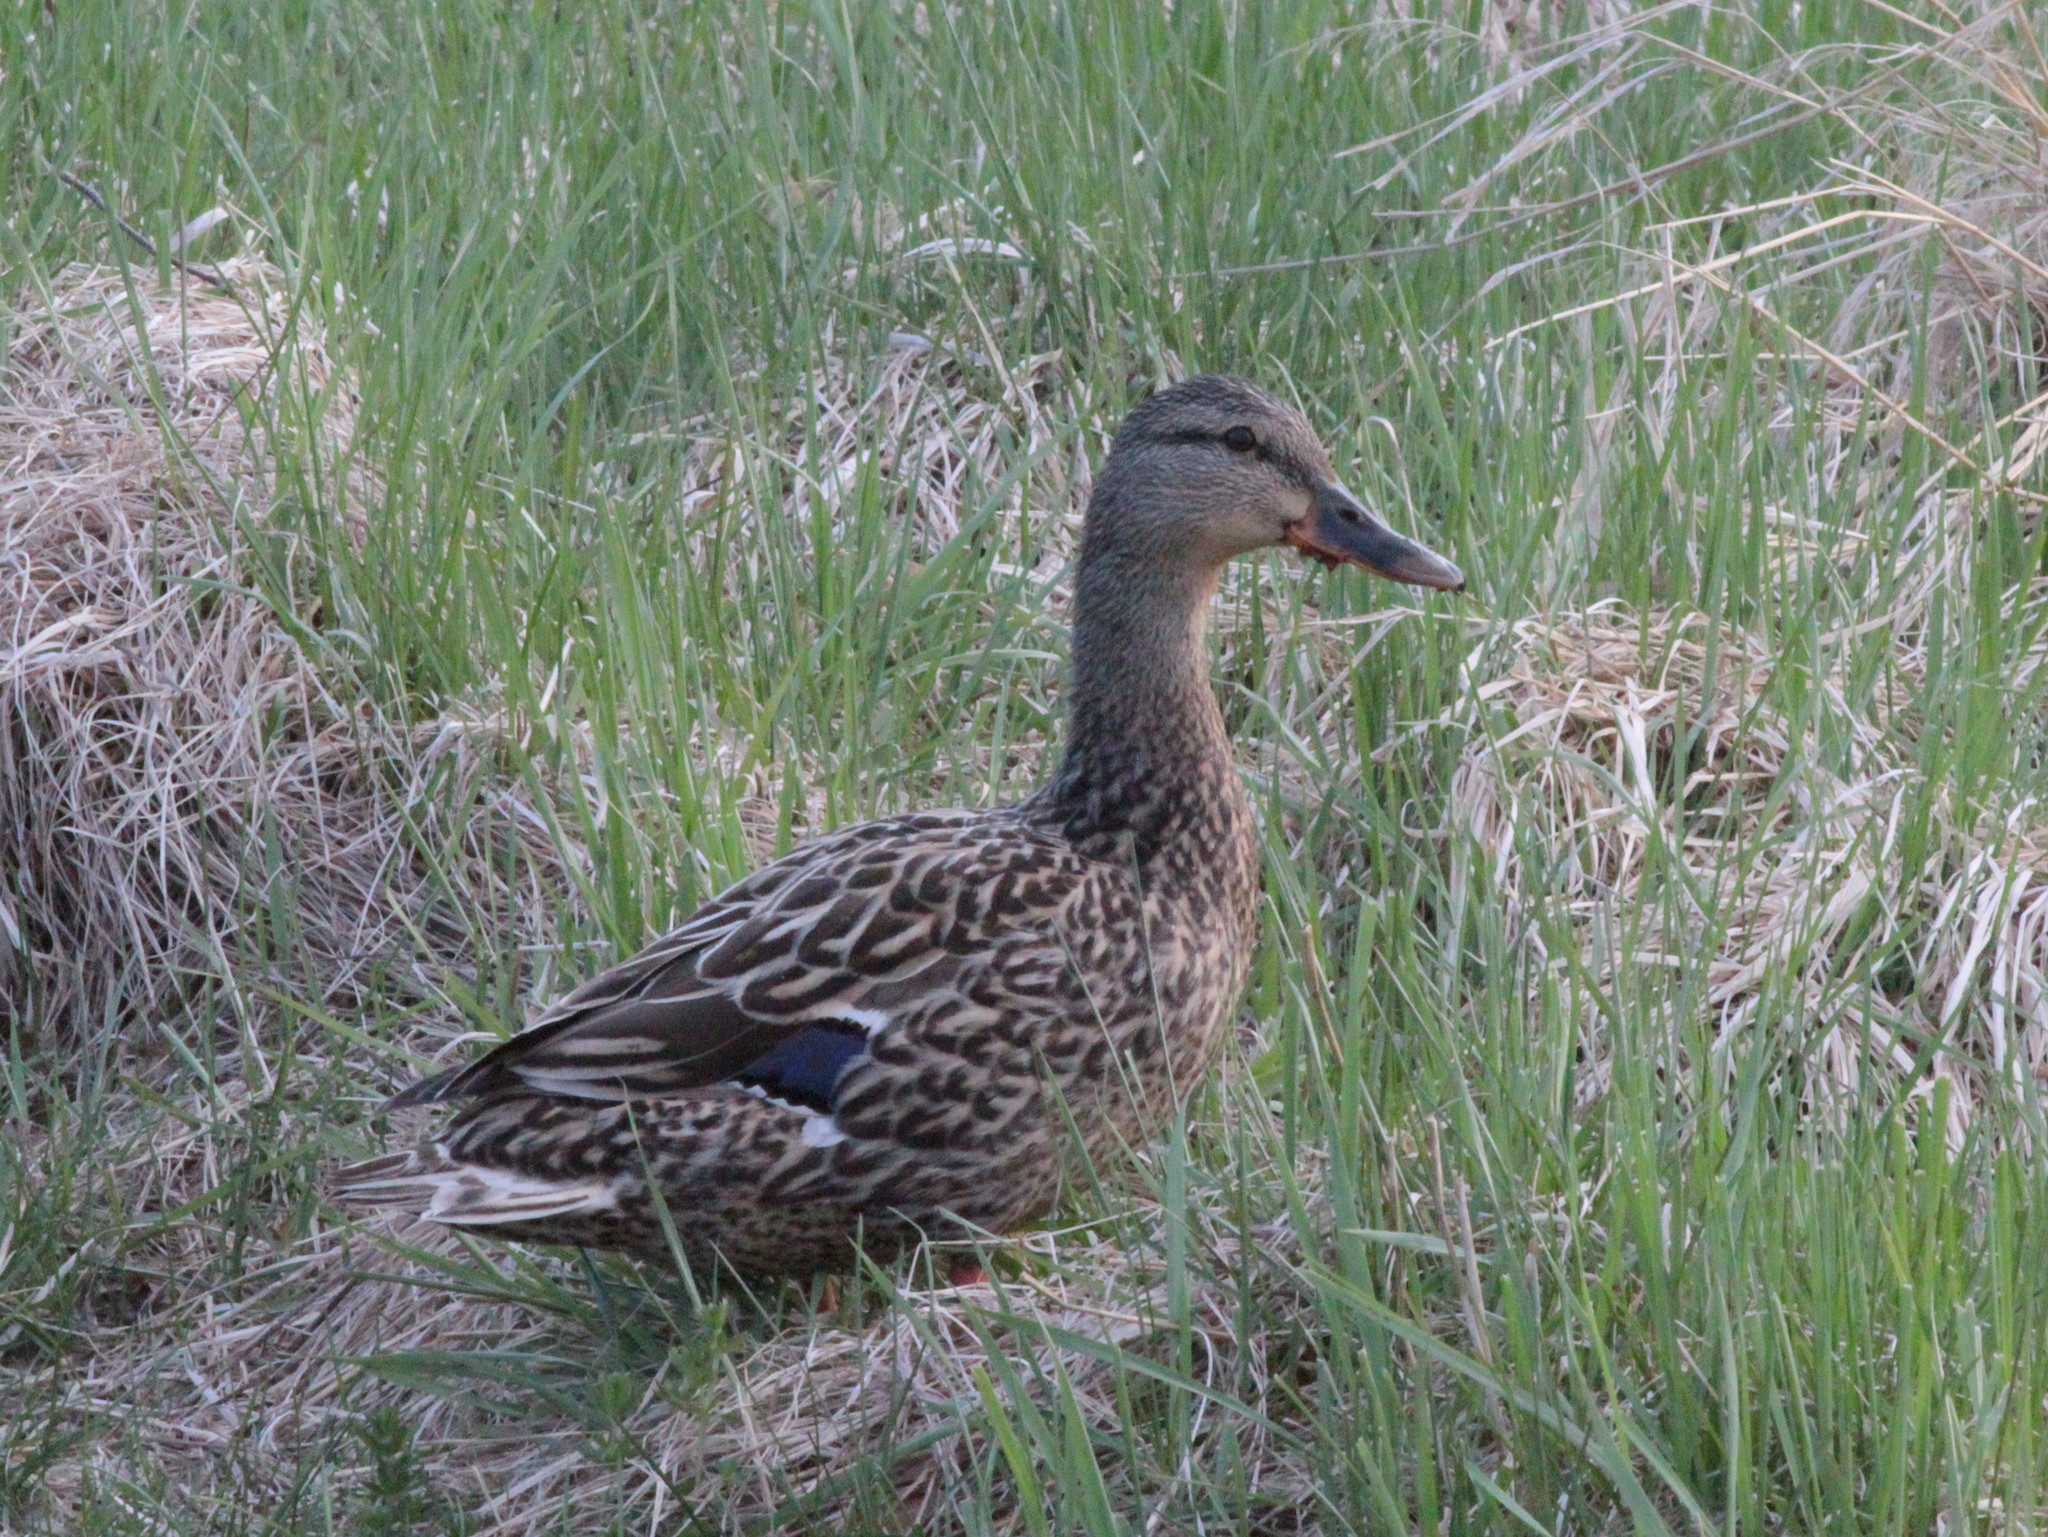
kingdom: Animalia
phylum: Chordata
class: Aves
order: Anseriformes
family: Anatidae
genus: Anas
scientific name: Anas platyrhynchos
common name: Mallard
